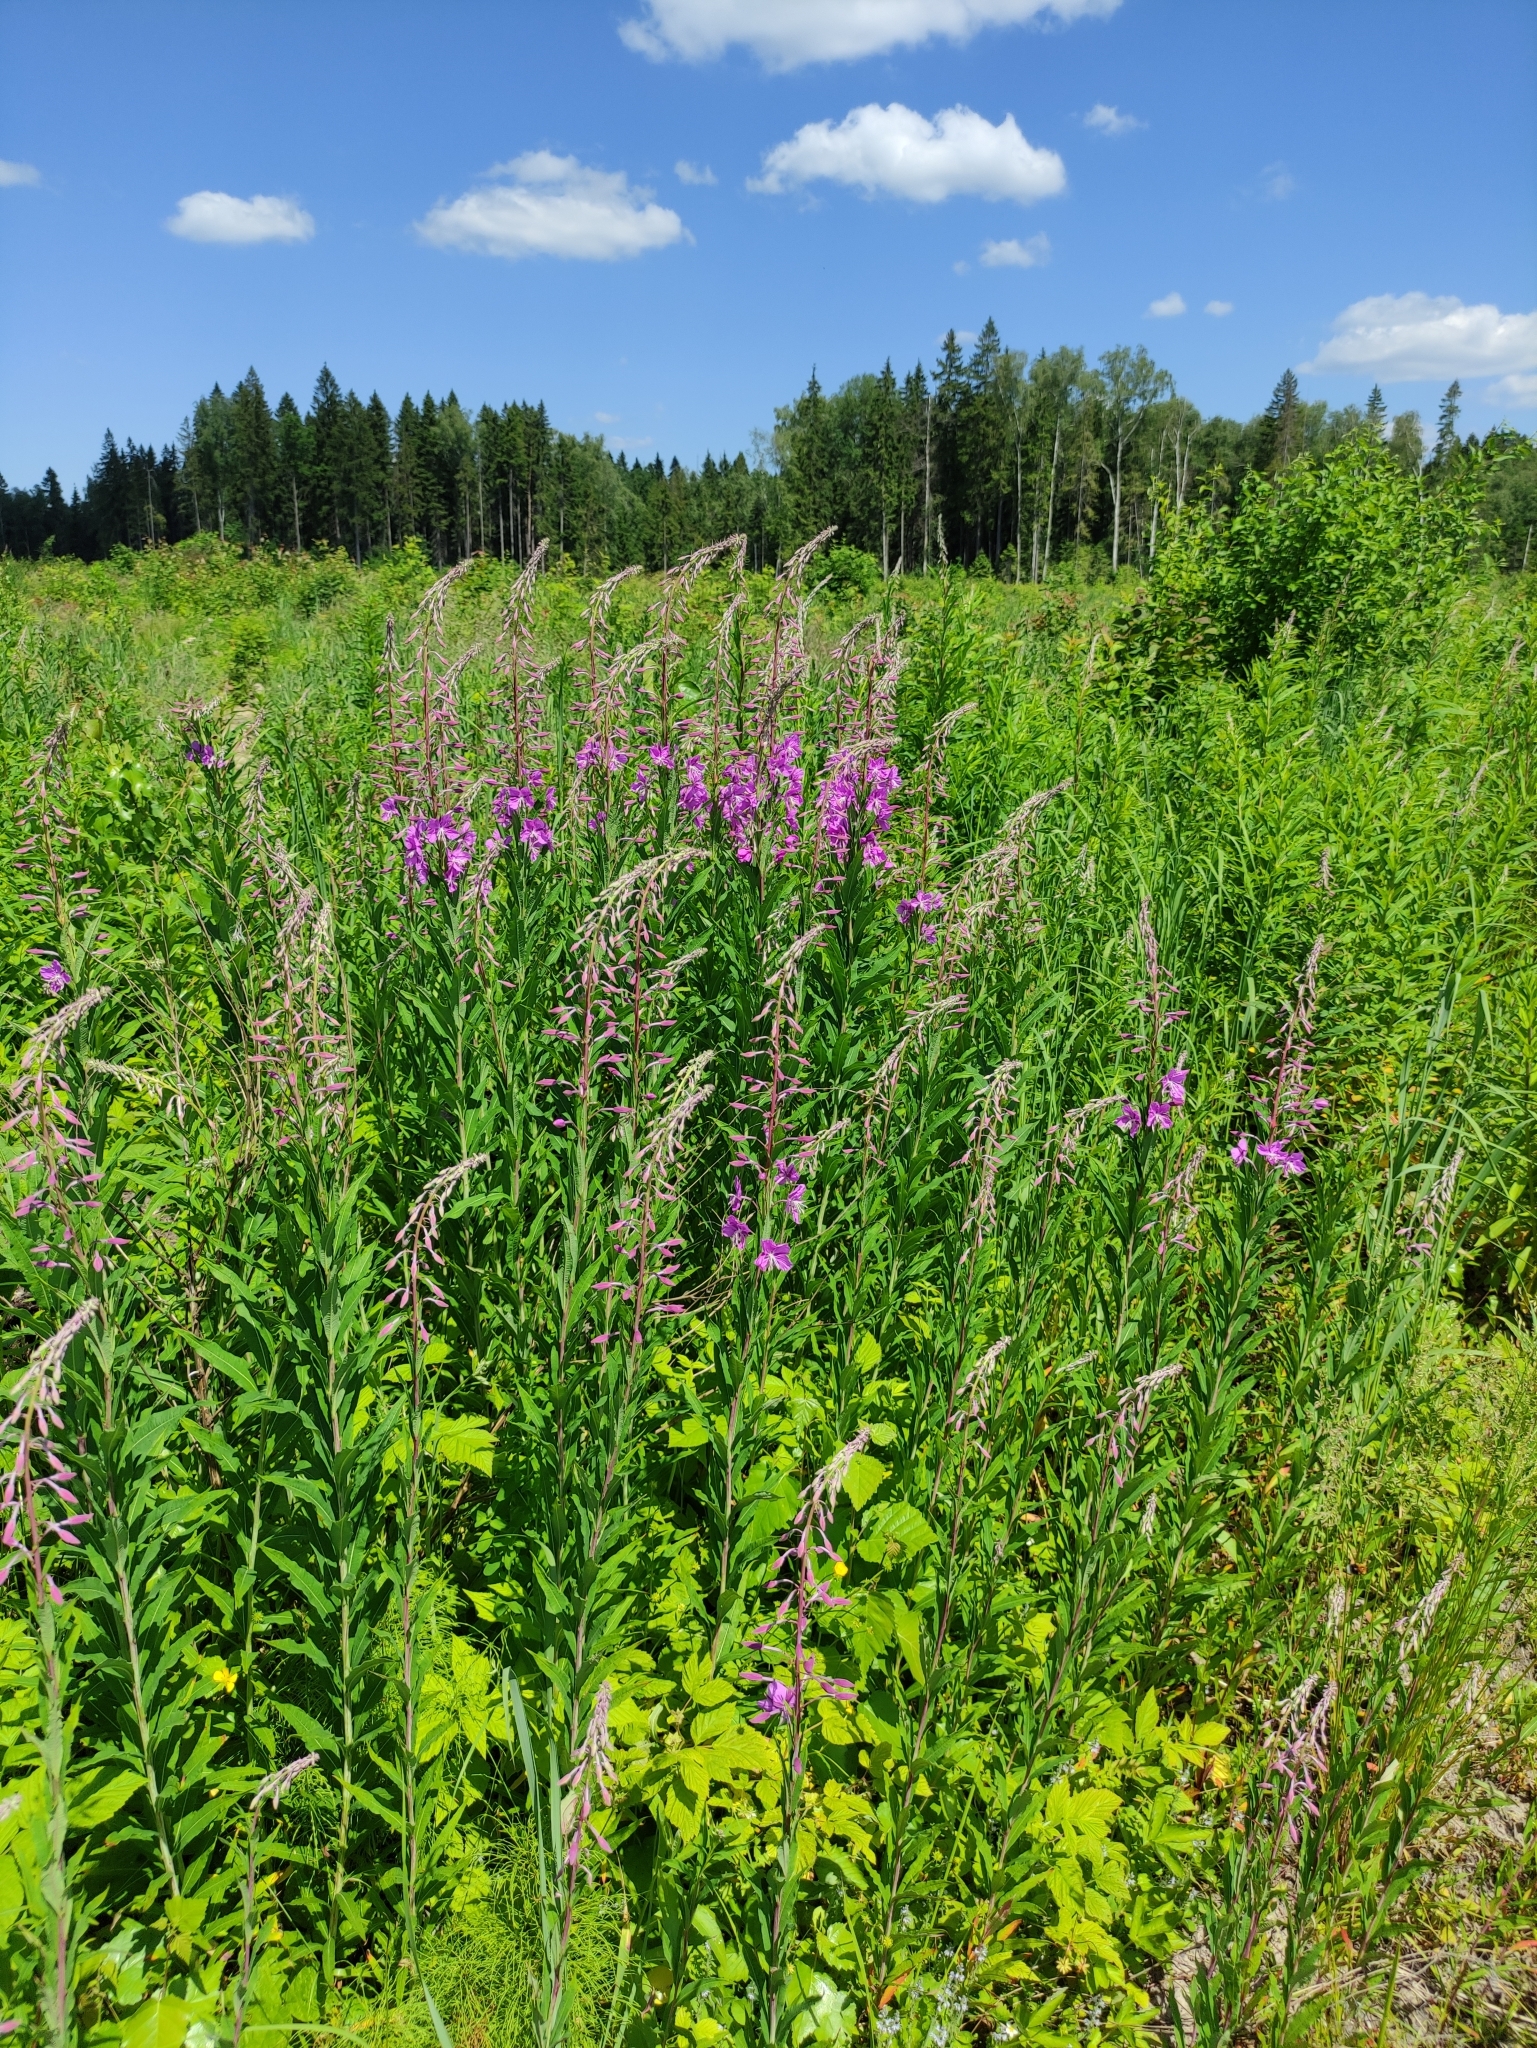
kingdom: Plantae
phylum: Tracheophyta
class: Magnoliopsida
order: Myrtales
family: Onagraceae
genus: Chamaenerion
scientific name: Chamaenerion angustifolium
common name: Fireweed
